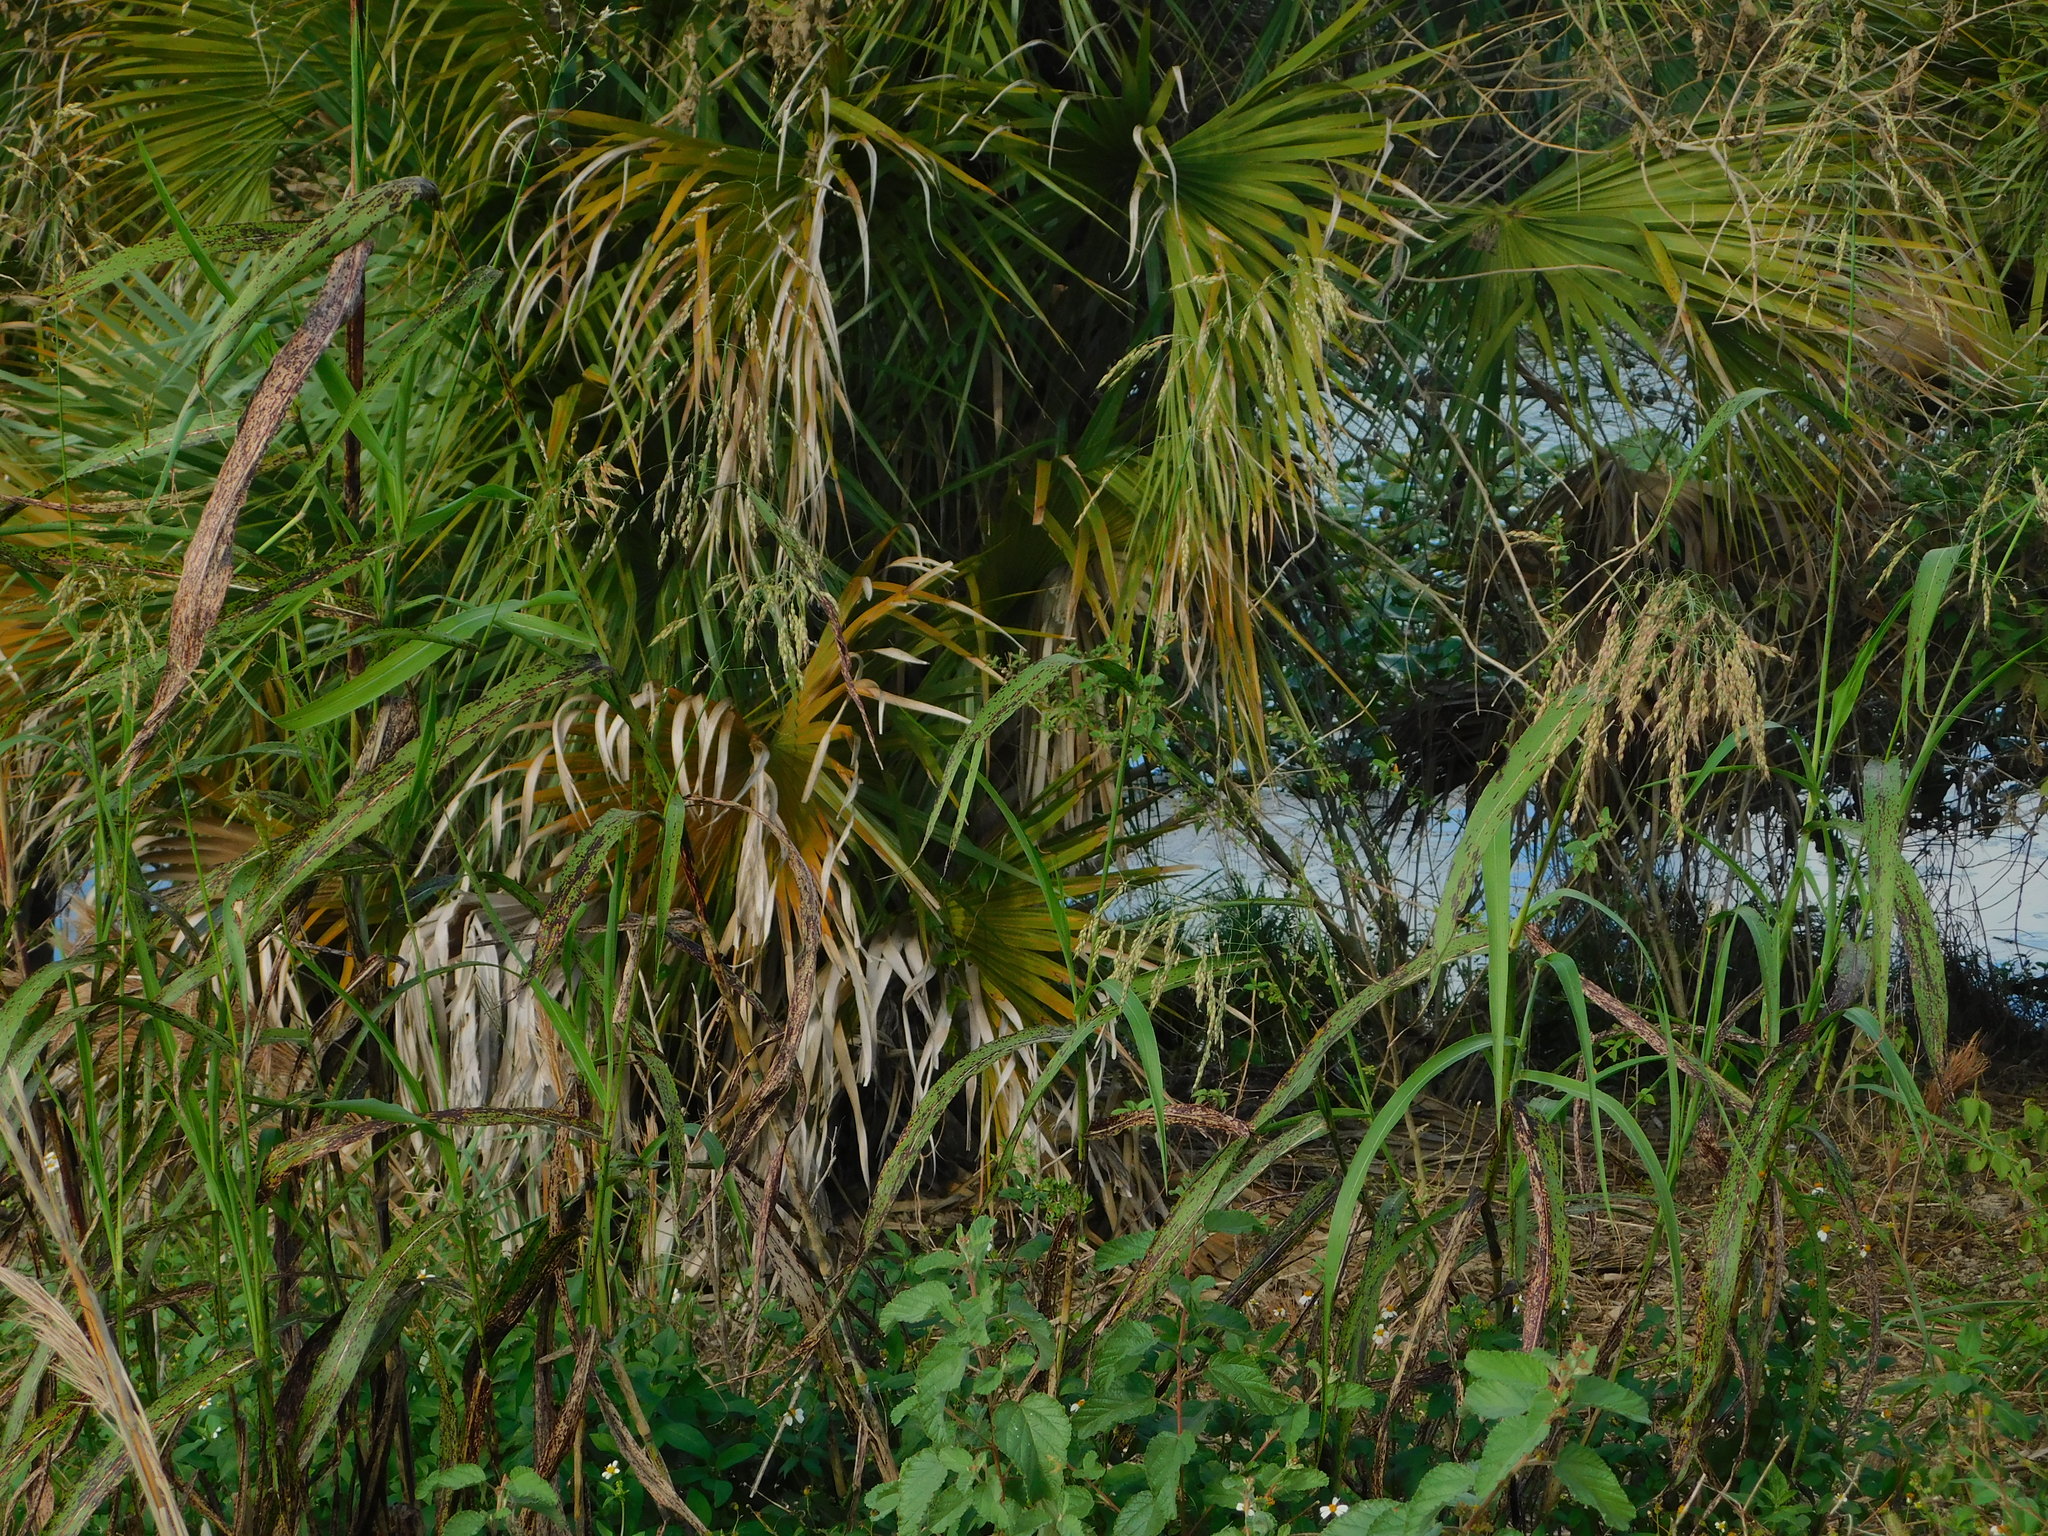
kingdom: Plantae
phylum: Tracheophyta
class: Liliopsida
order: Poales
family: Poaceae
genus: Sorghum
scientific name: Sorghum halepense
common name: Johnson-grass
